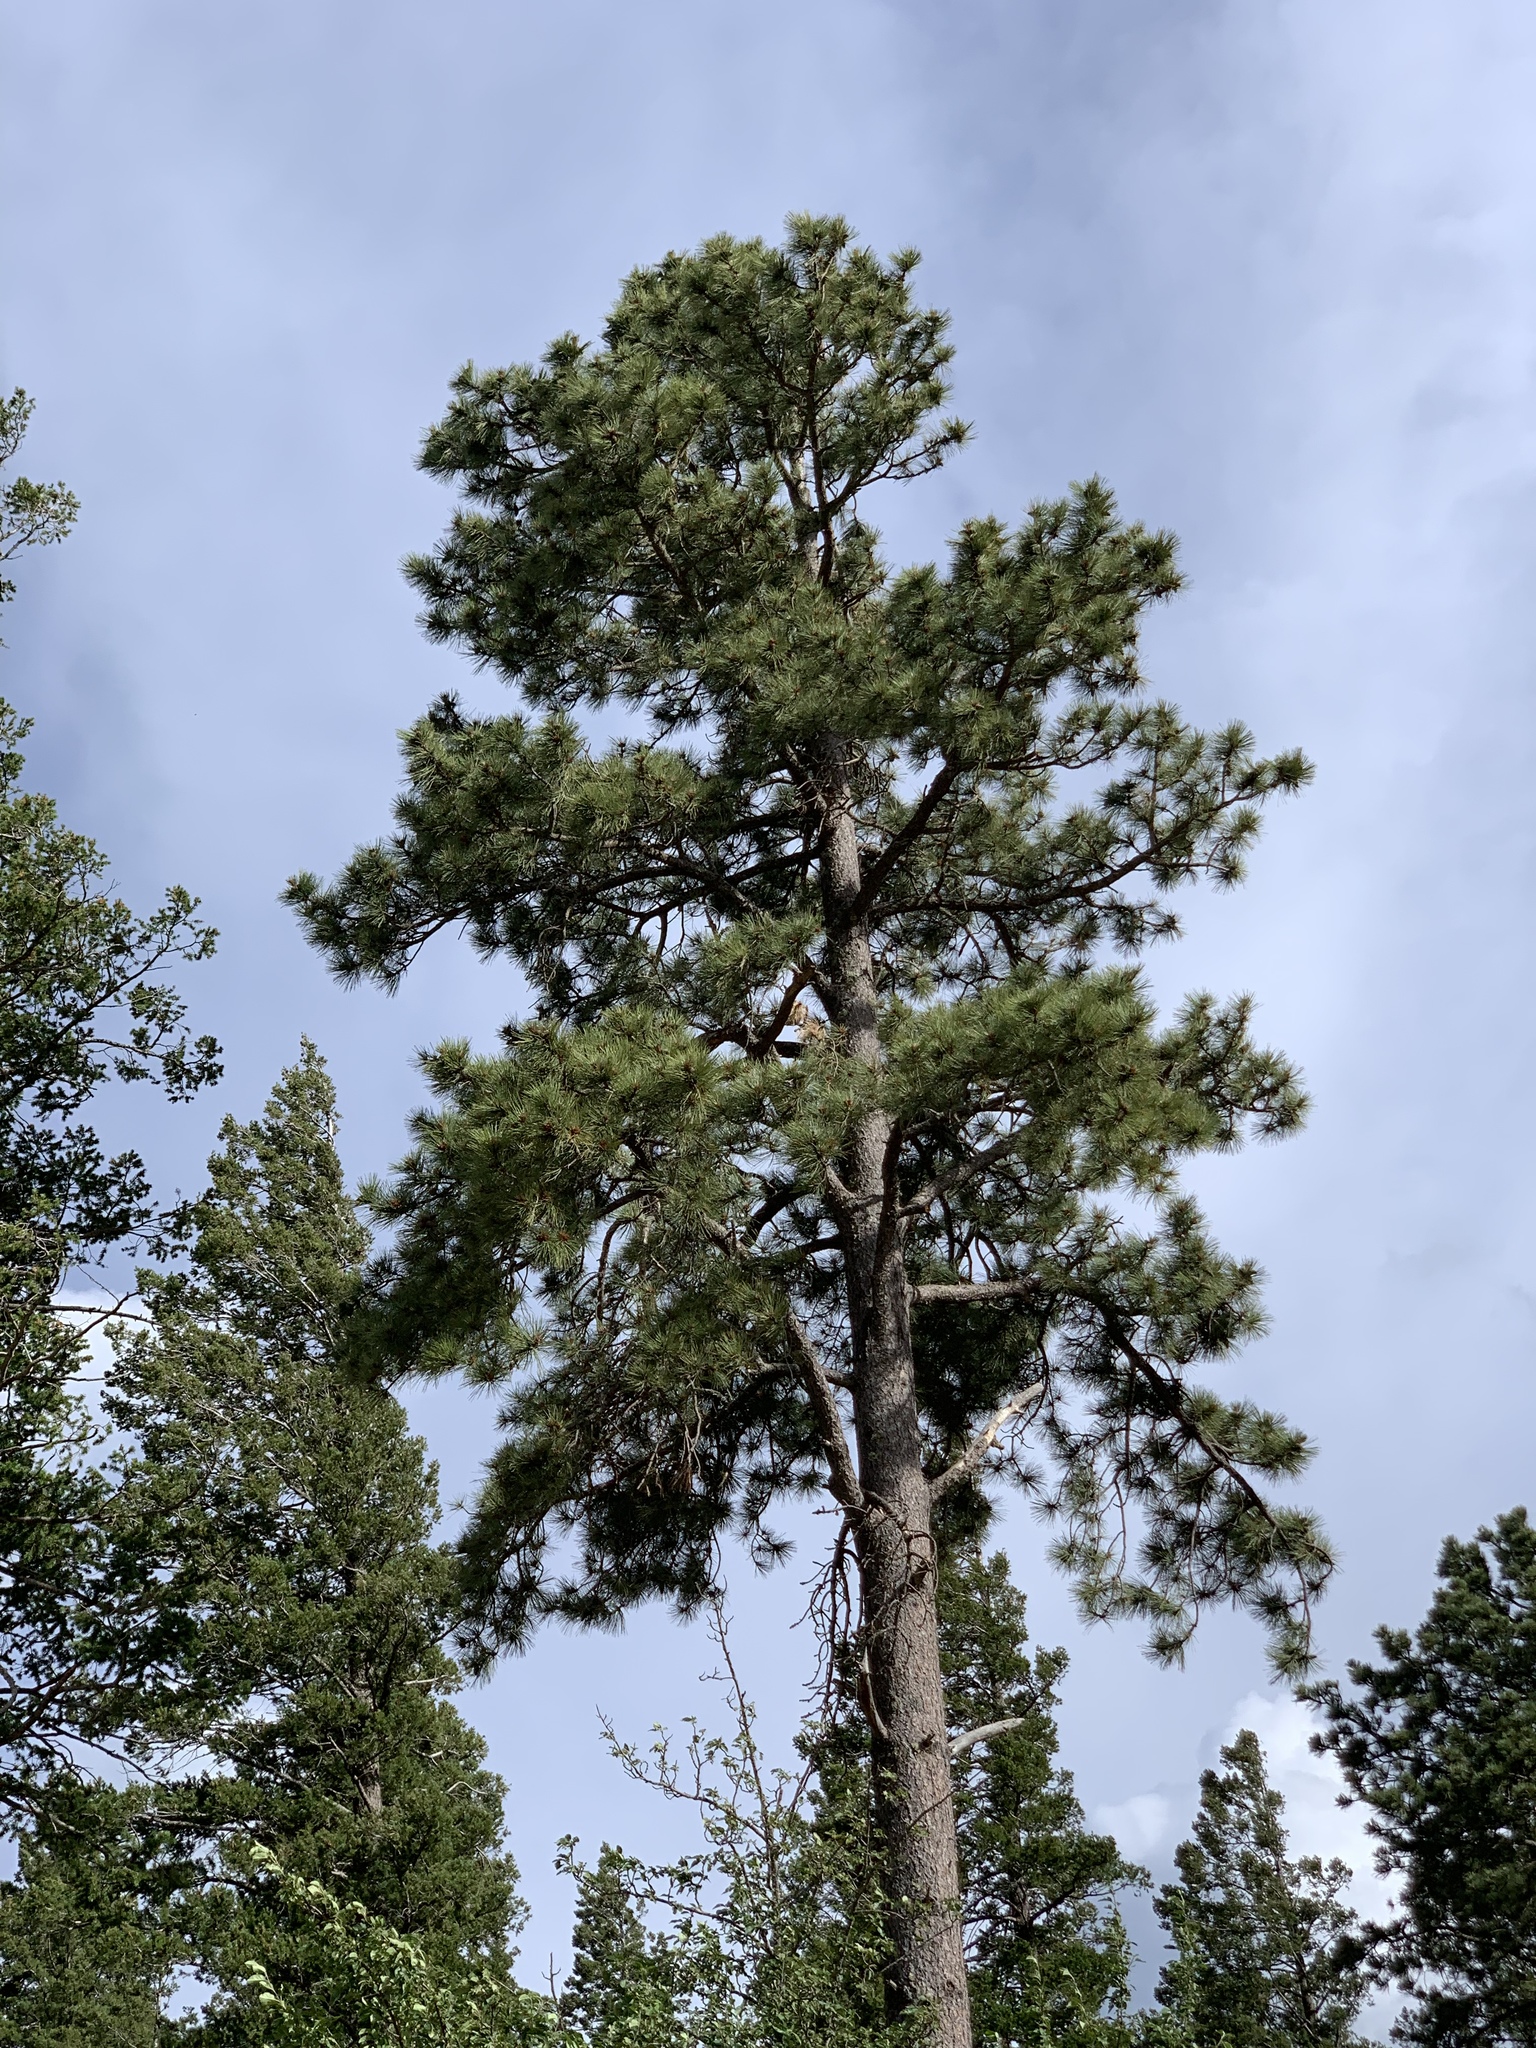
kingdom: Plantae
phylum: Tracheophyta
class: Pinopsida
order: Pinales
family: Pinaceae
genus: Pinus
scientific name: Pinus ponderosa
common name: Western yellow-pine
